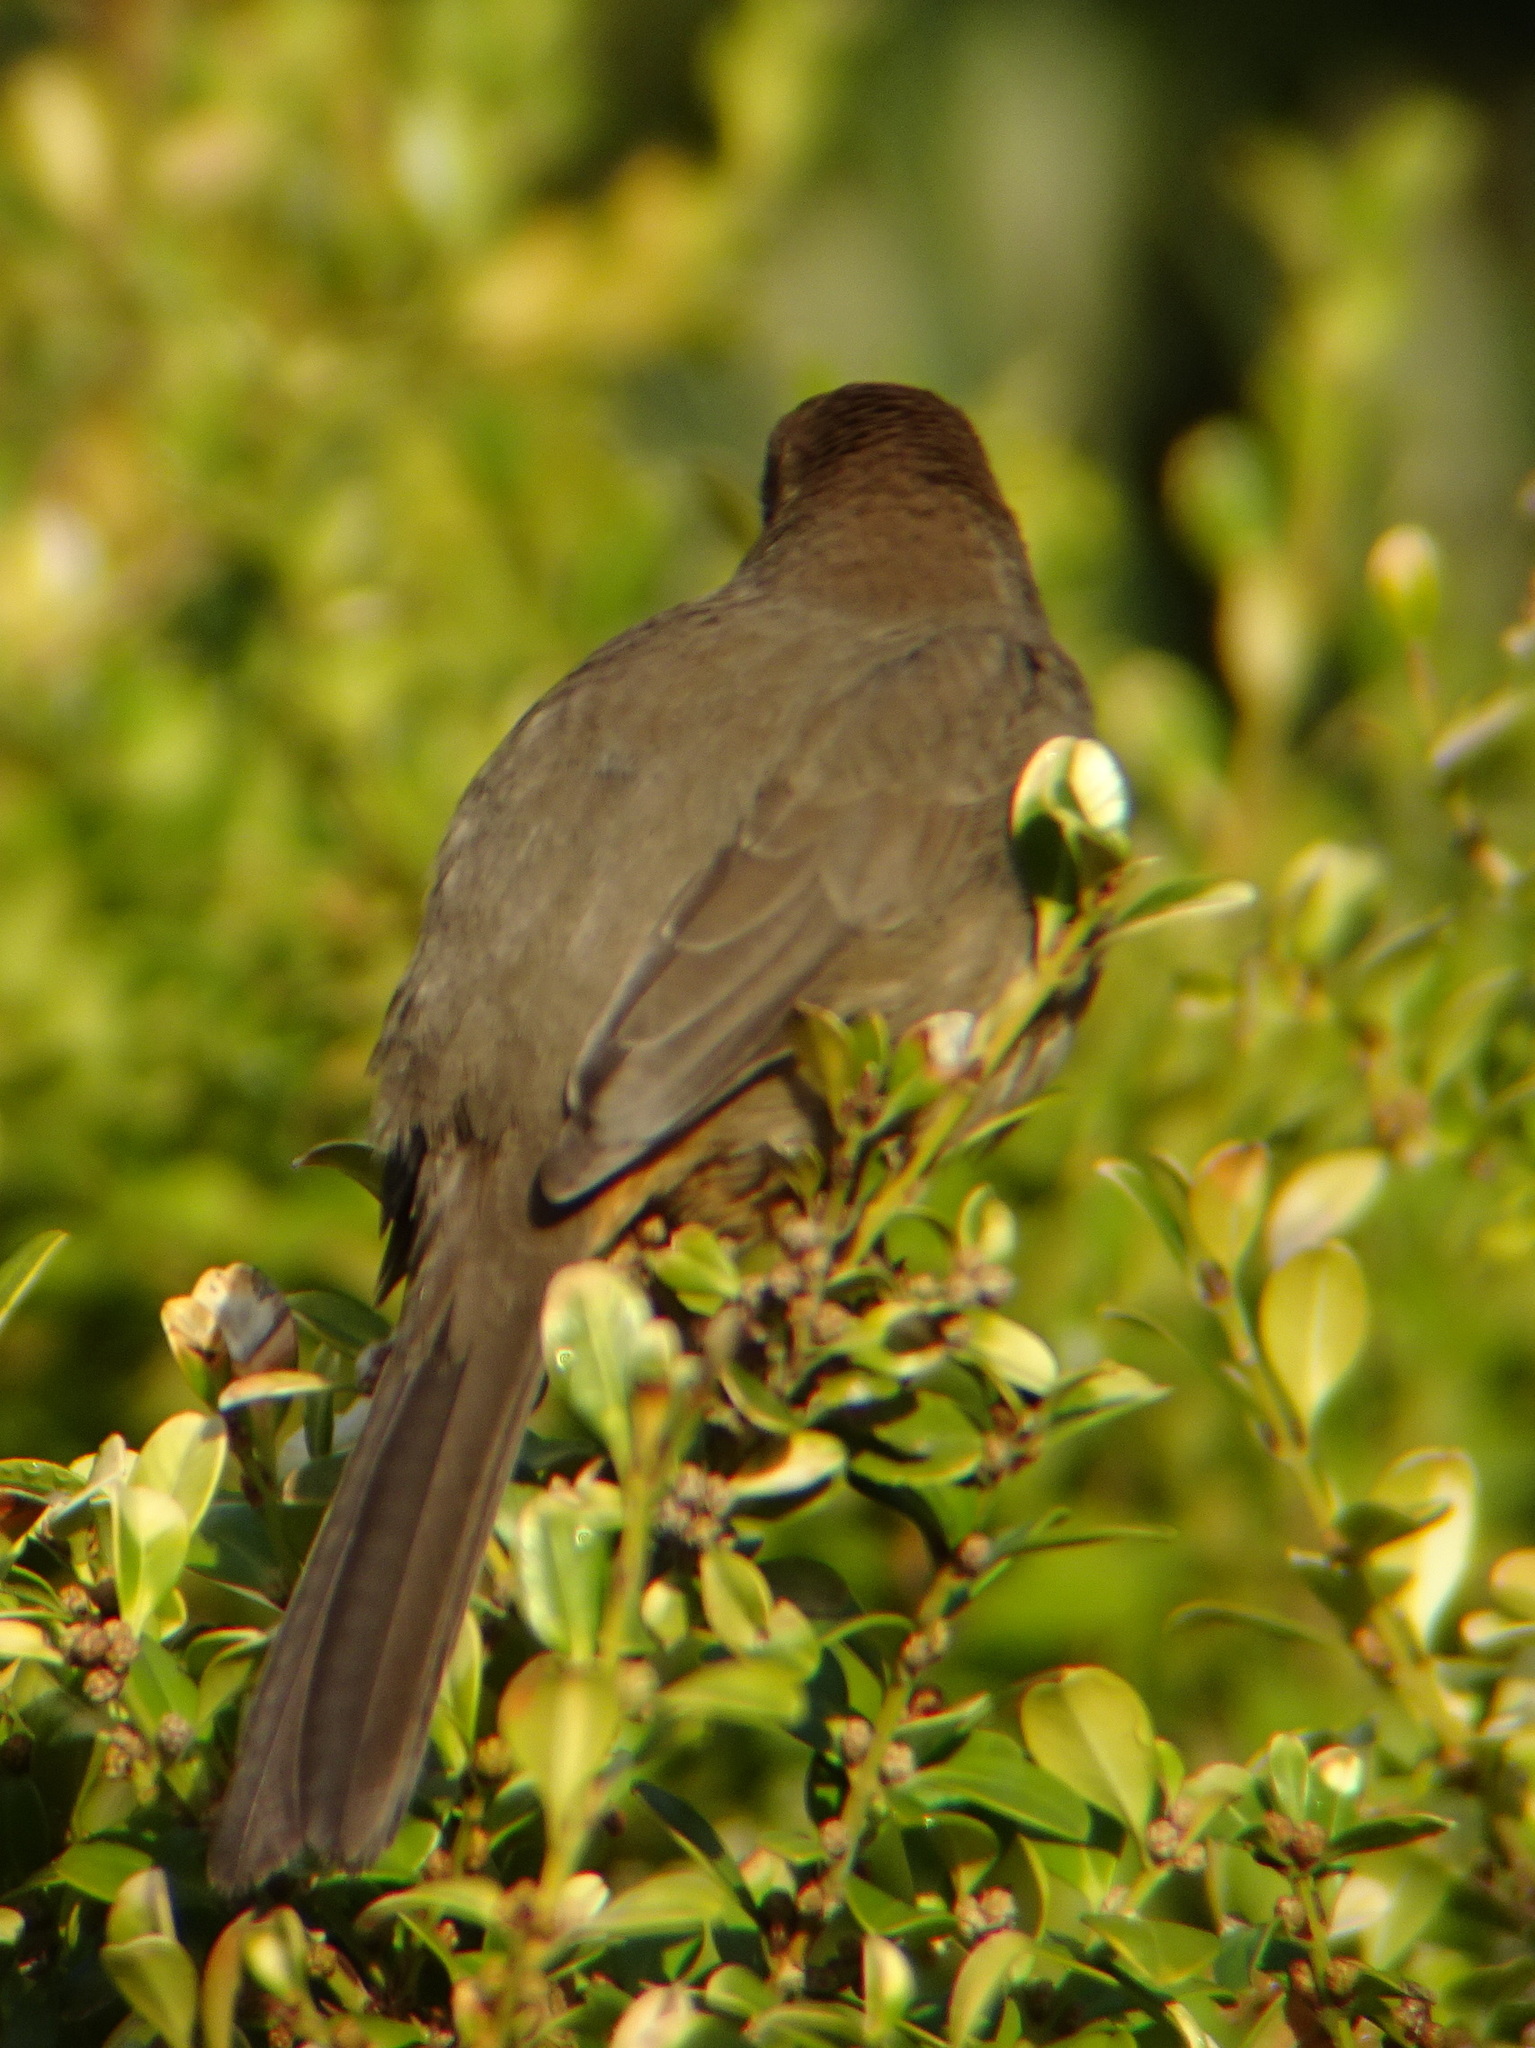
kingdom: Animalia
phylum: Chordata
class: Aves
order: Passeriformes
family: Passerellidae
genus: Melozone
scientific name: Melozone crissalis
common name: California towhee
